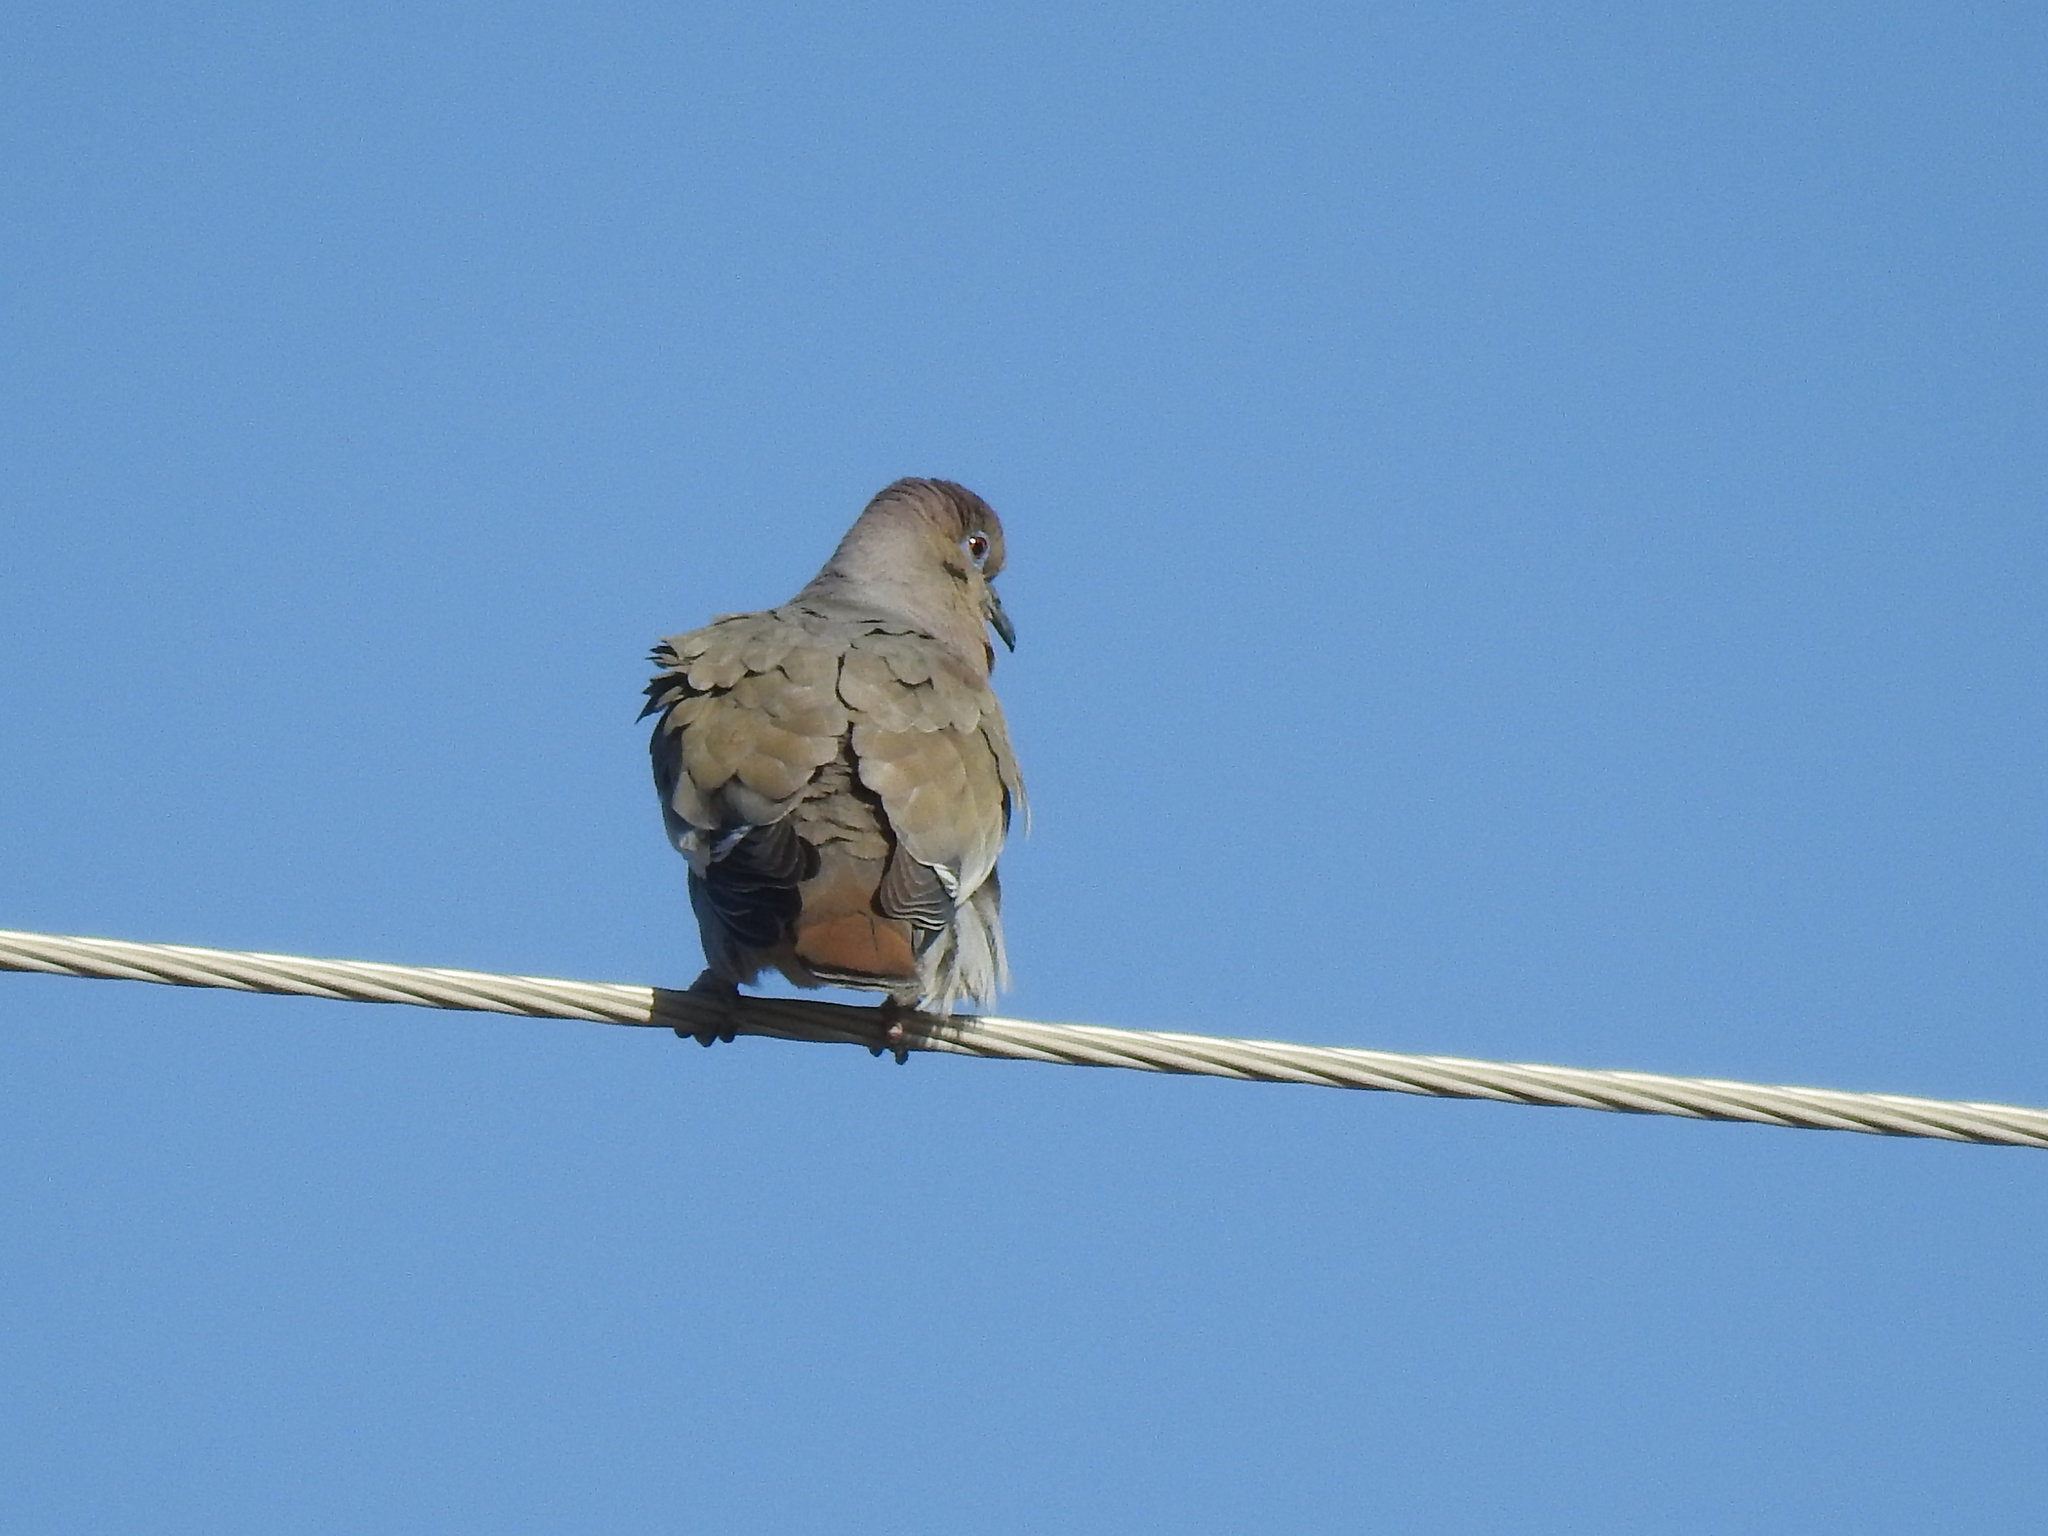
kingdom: Animalia
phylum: Chordata
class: Aves
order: Columbiformes
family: Columbidae
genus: Zenaida
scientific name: Zenaida asiatica
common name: White-winged dove
